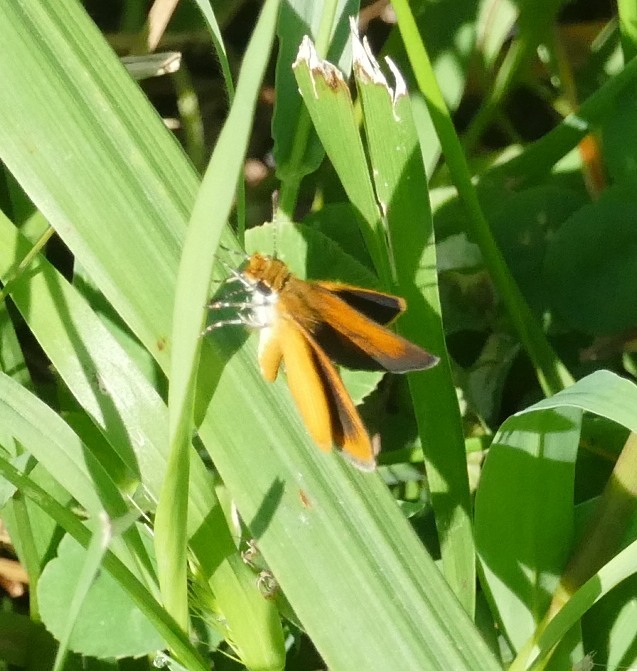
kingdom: Animalia
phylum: Arthropoda
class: Insecta
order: Lepidoptera
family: Hesperiidae
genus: Ancyloxypha
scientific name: Ancyloxypha numitor
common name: Least skipper
